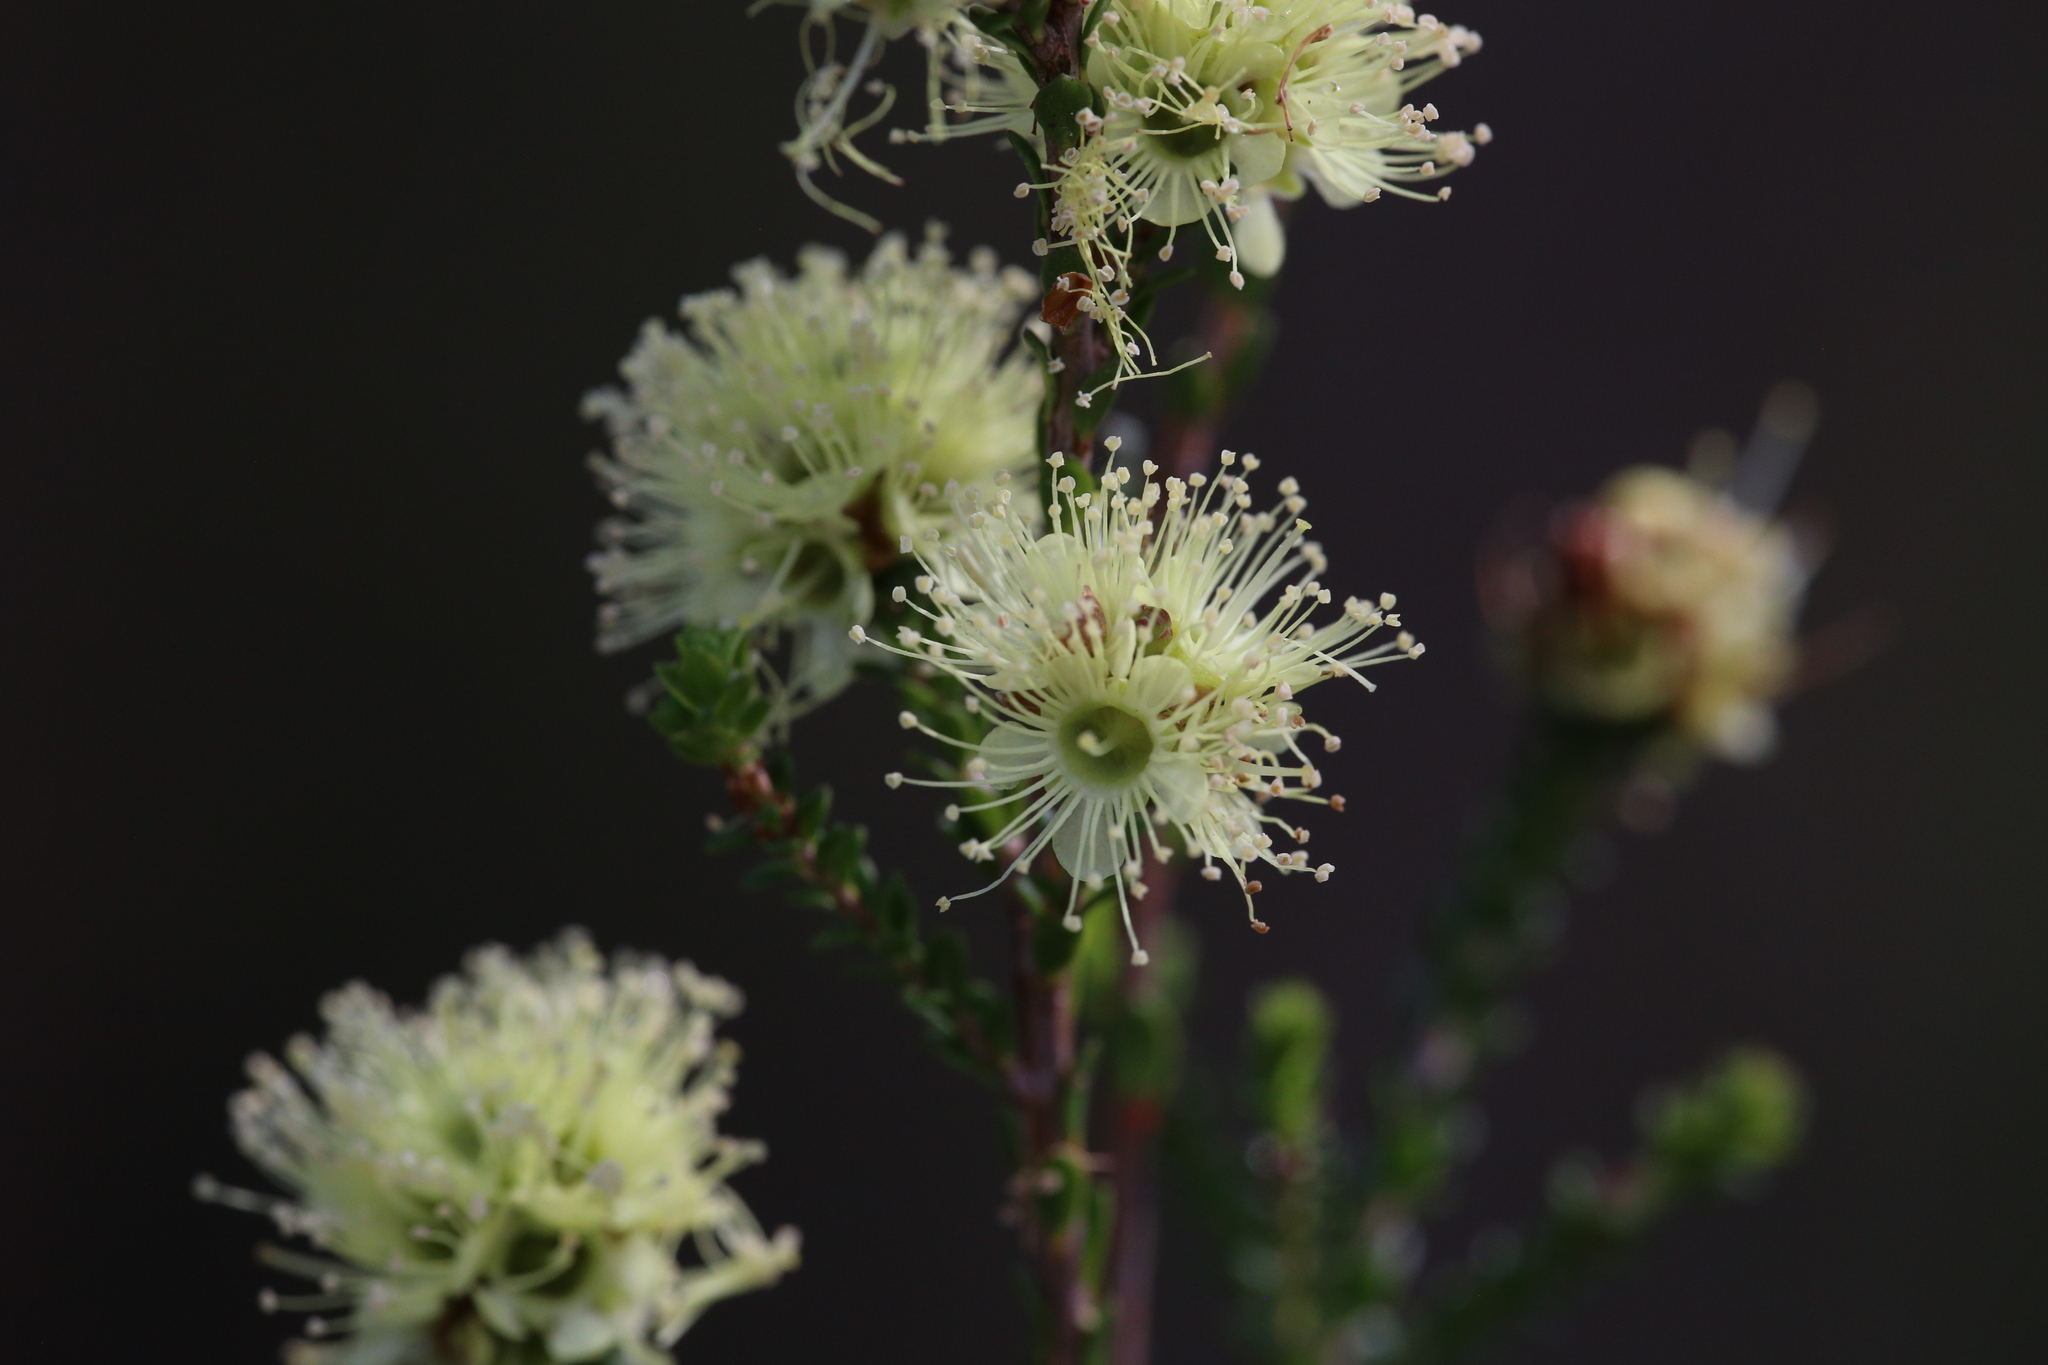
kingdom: Plantae
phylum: Tracheophyta
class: Magnoliopsida
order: Myrtales
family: Myrtaceae
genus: Kunzea
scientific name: Kunzea sulphurea
